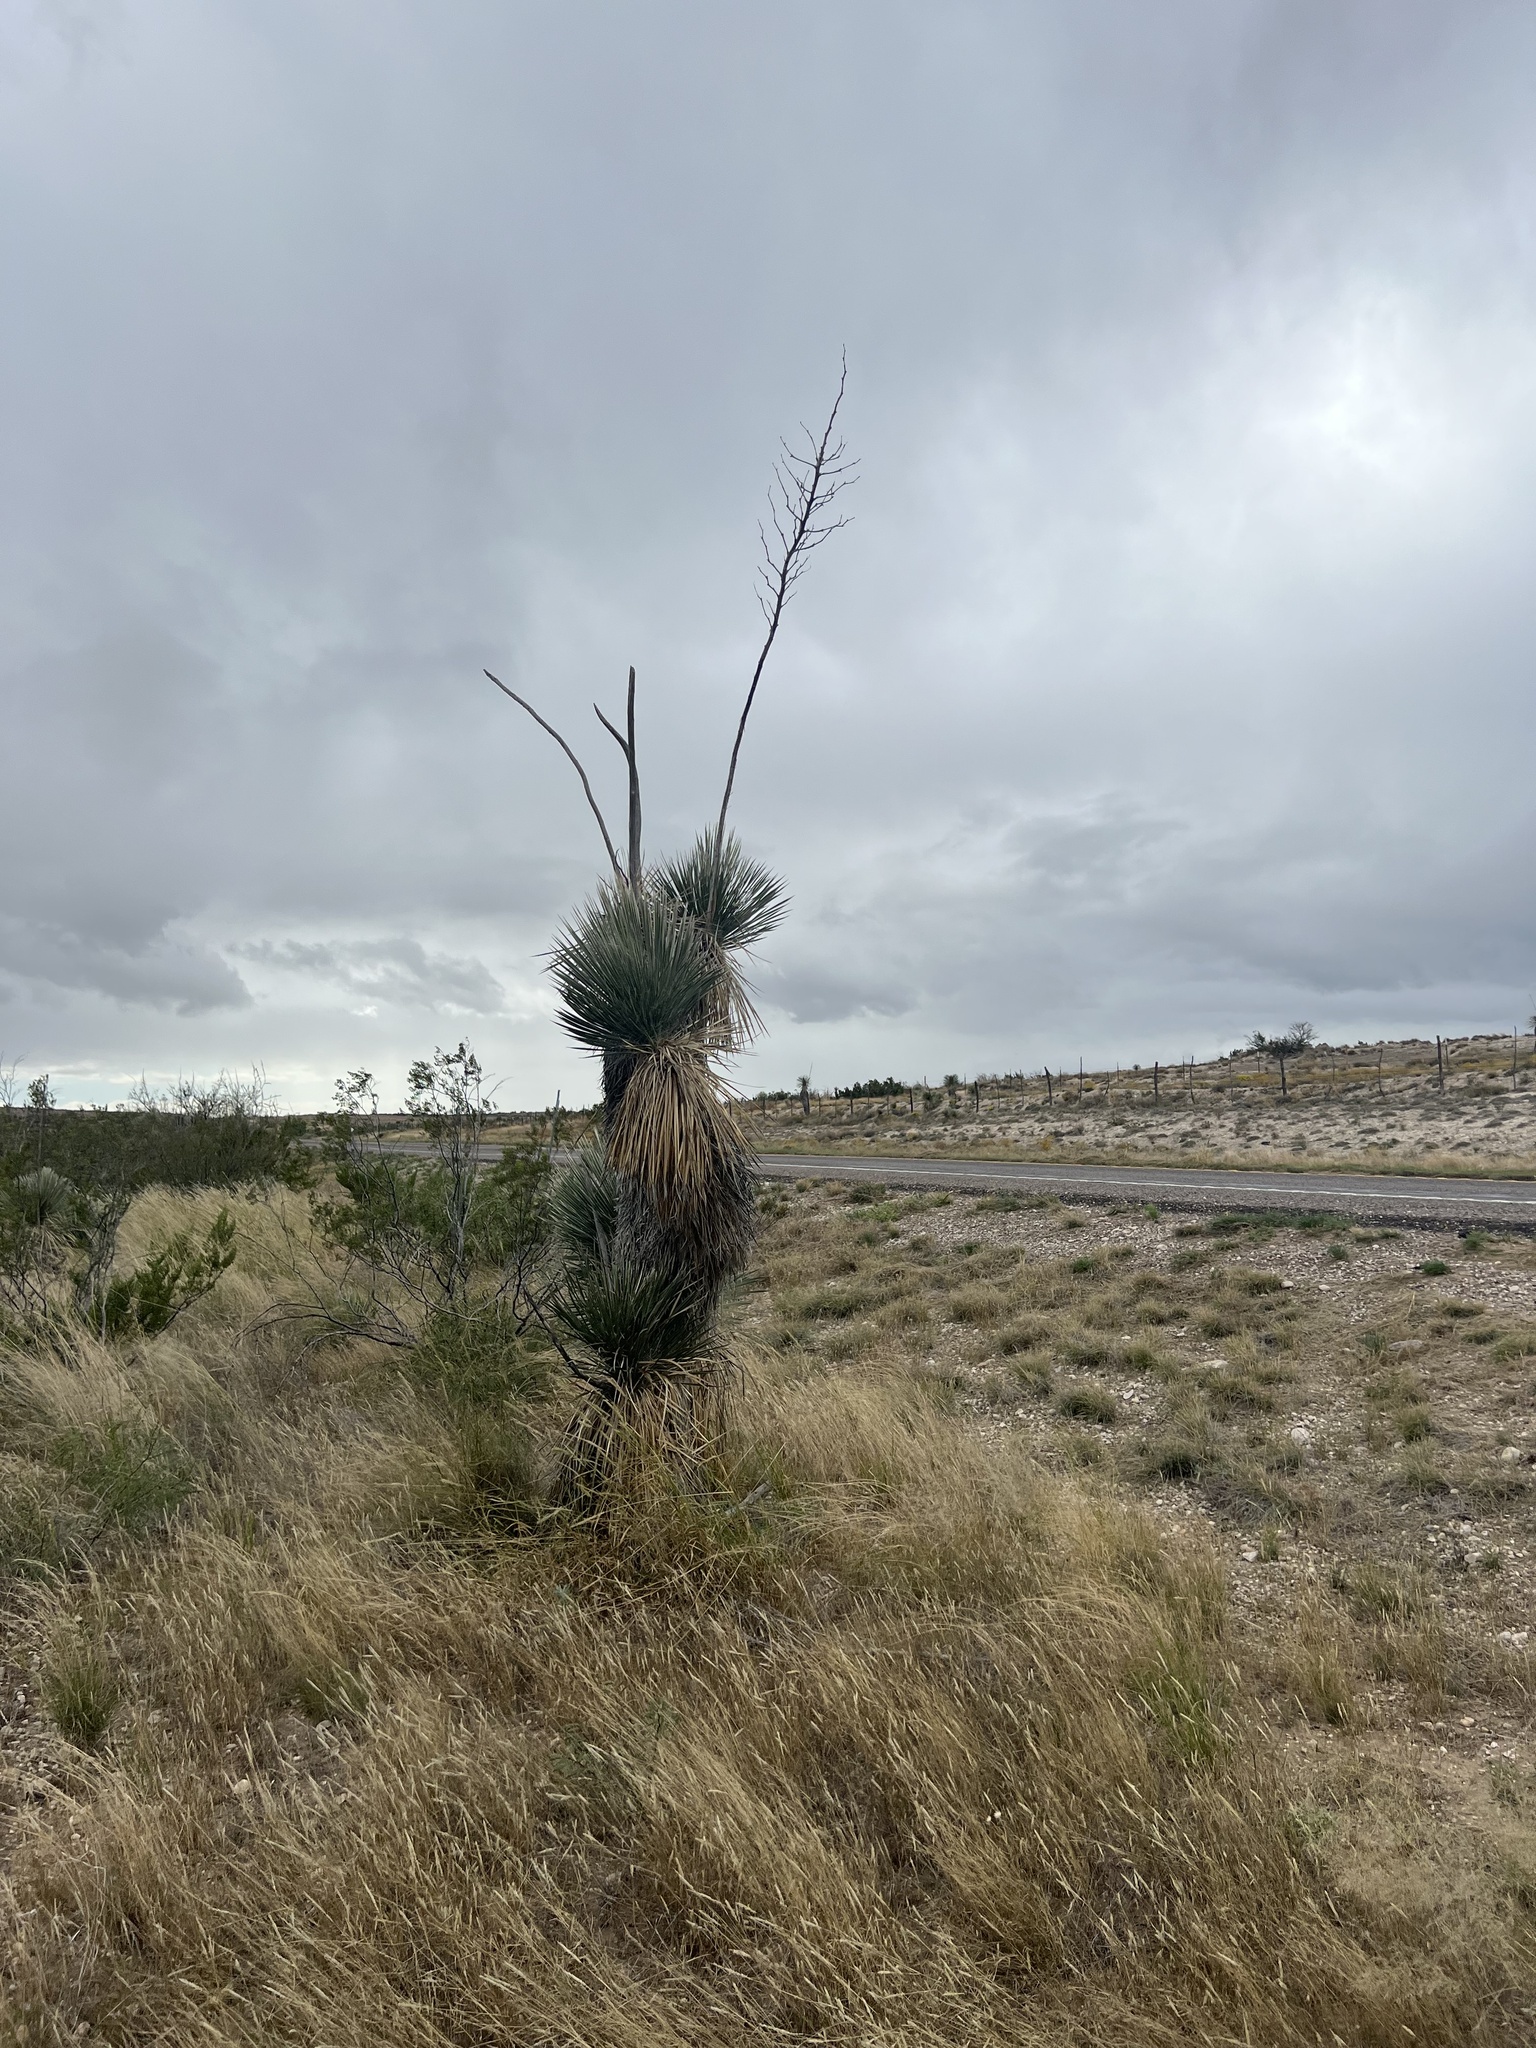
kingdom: Plantae
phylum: Tracheophyta
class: Liliopsida
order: Asparagales
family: Asparagaceae
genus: Yucca
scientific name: Yucca elata
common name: Palmella
